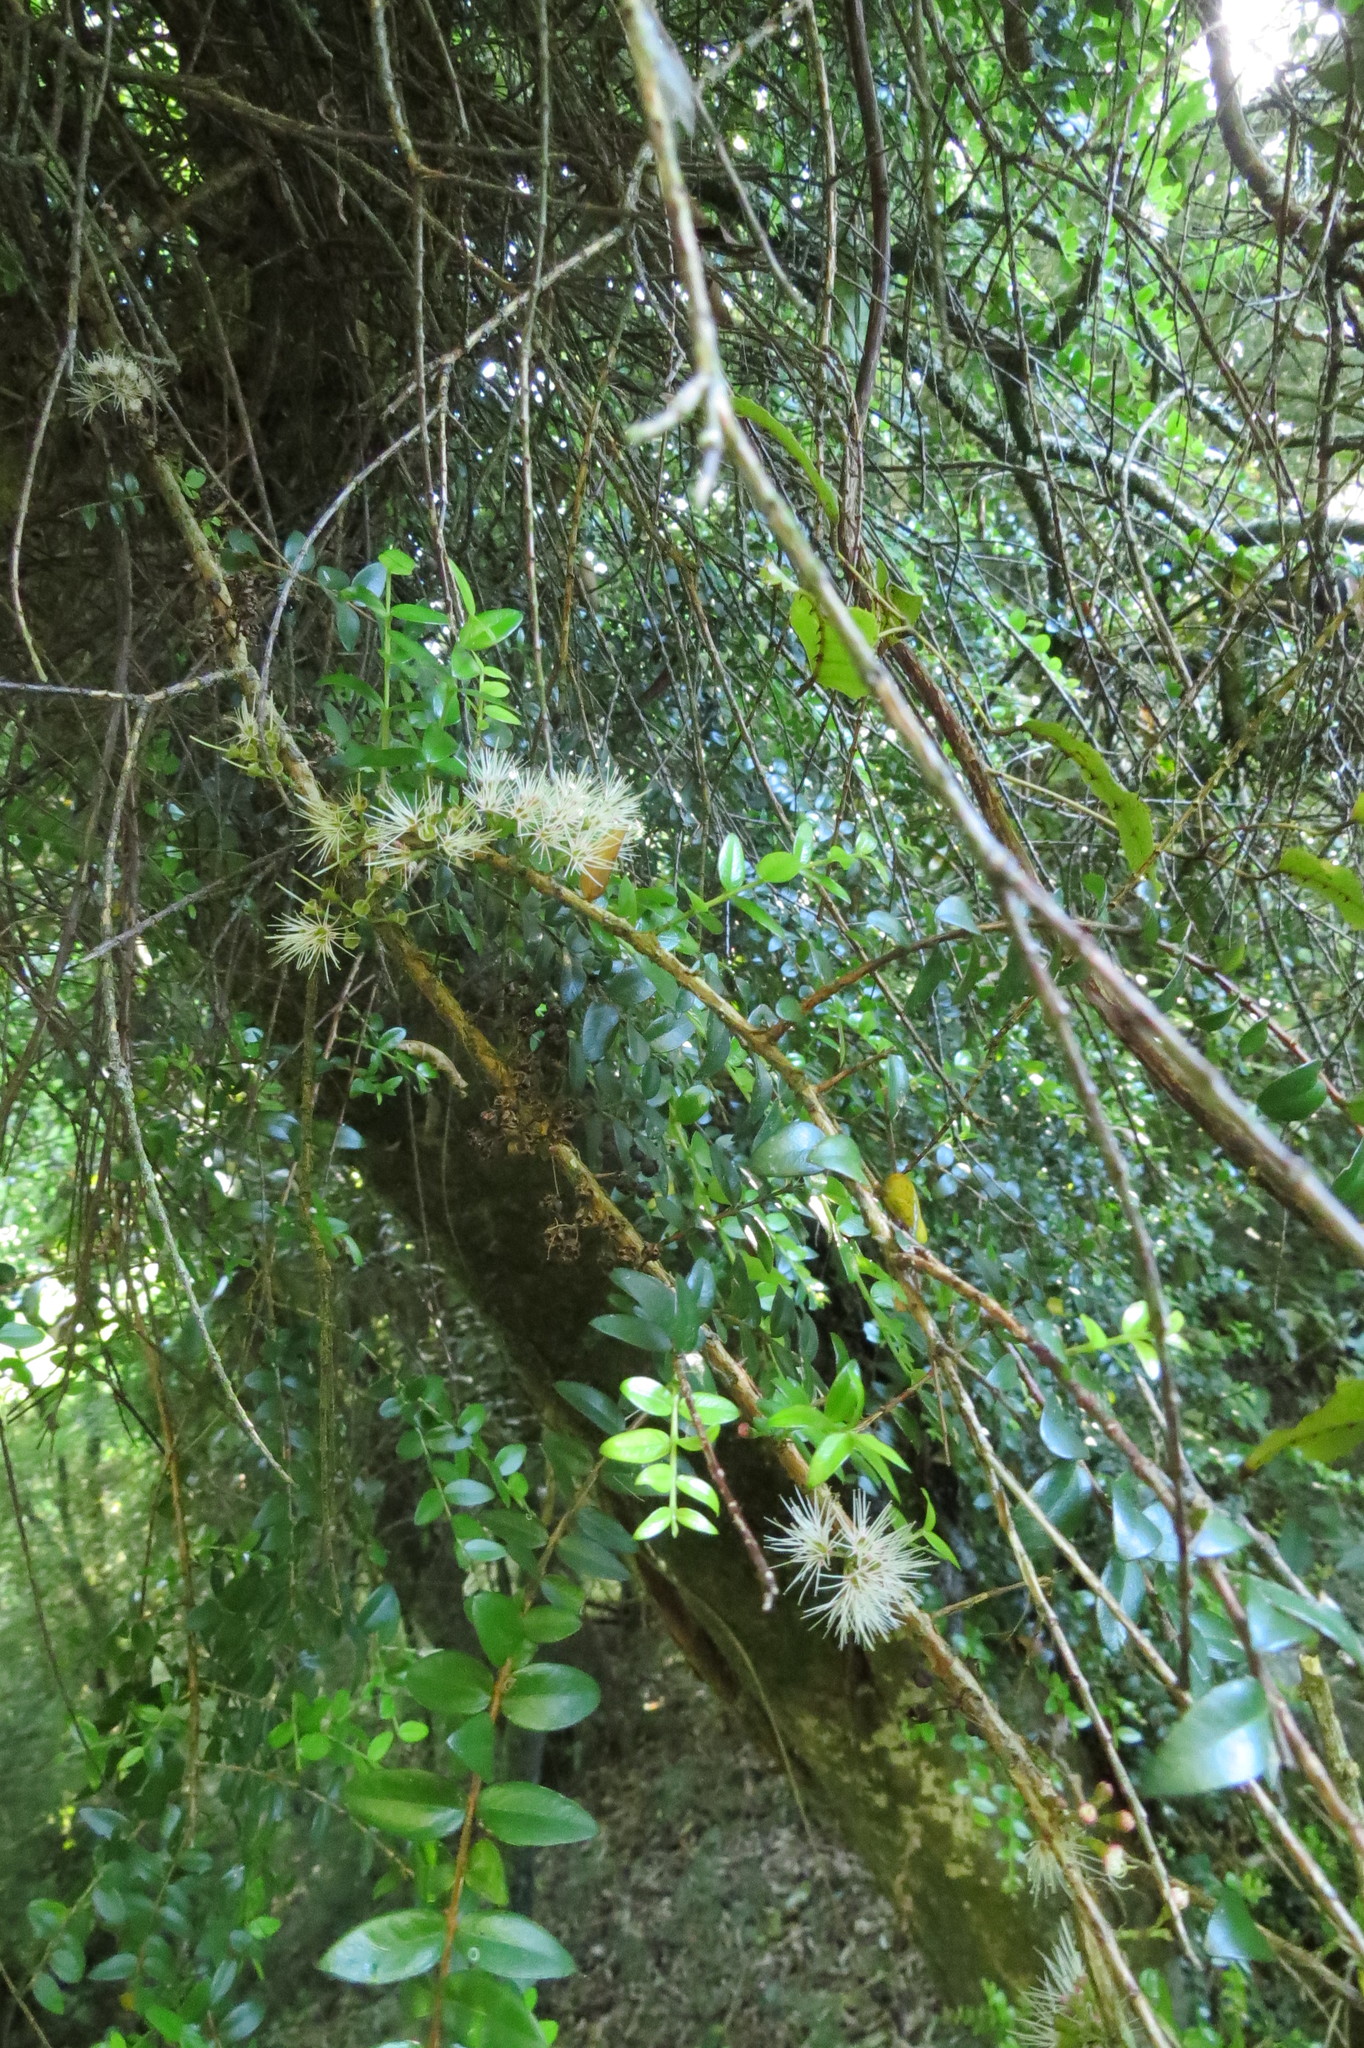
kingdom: Plantae
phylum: Tracheophyta
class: Magnoliopsida
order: Myrtales
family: Myrtaceae
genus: Metrosideros
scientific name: Metrosideros diffusa
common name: Small ratavine
